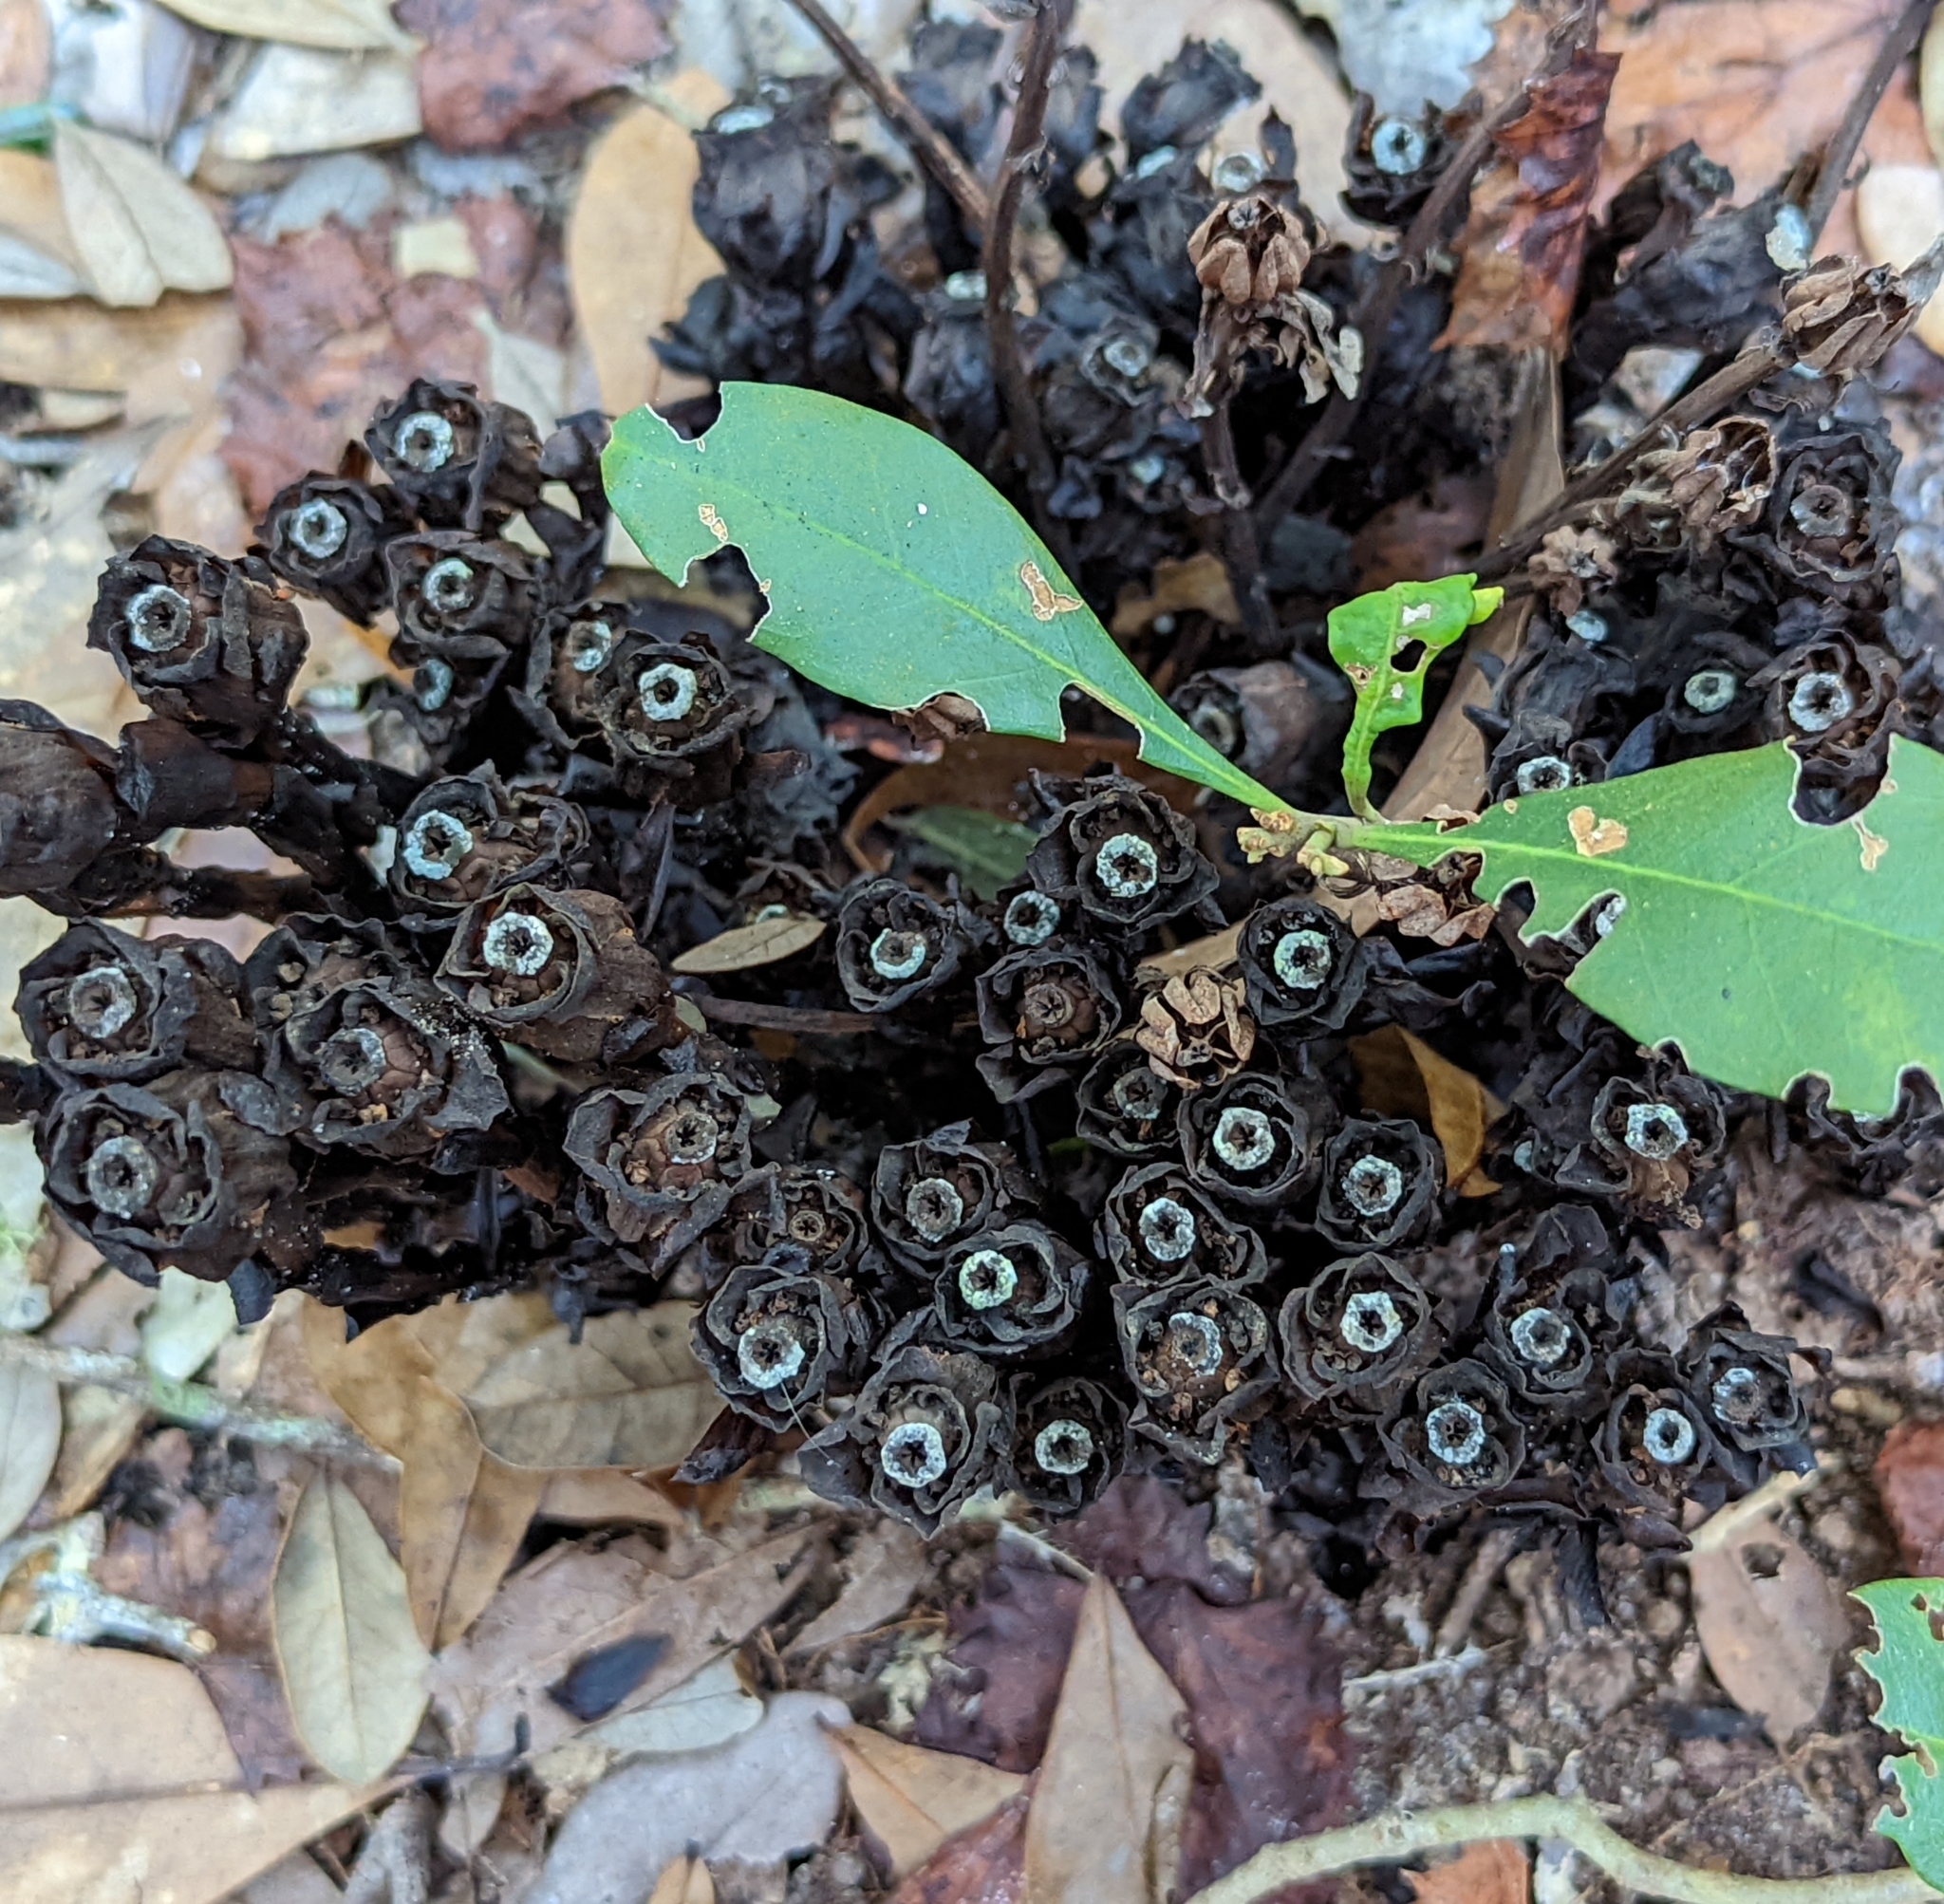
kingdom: Plantae
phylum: Tracheophyta
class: Magnoliopsida
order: Ericales
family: Ericaceae
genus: Monotropa
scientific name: Monotropa uniflora
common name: Convulsion root
